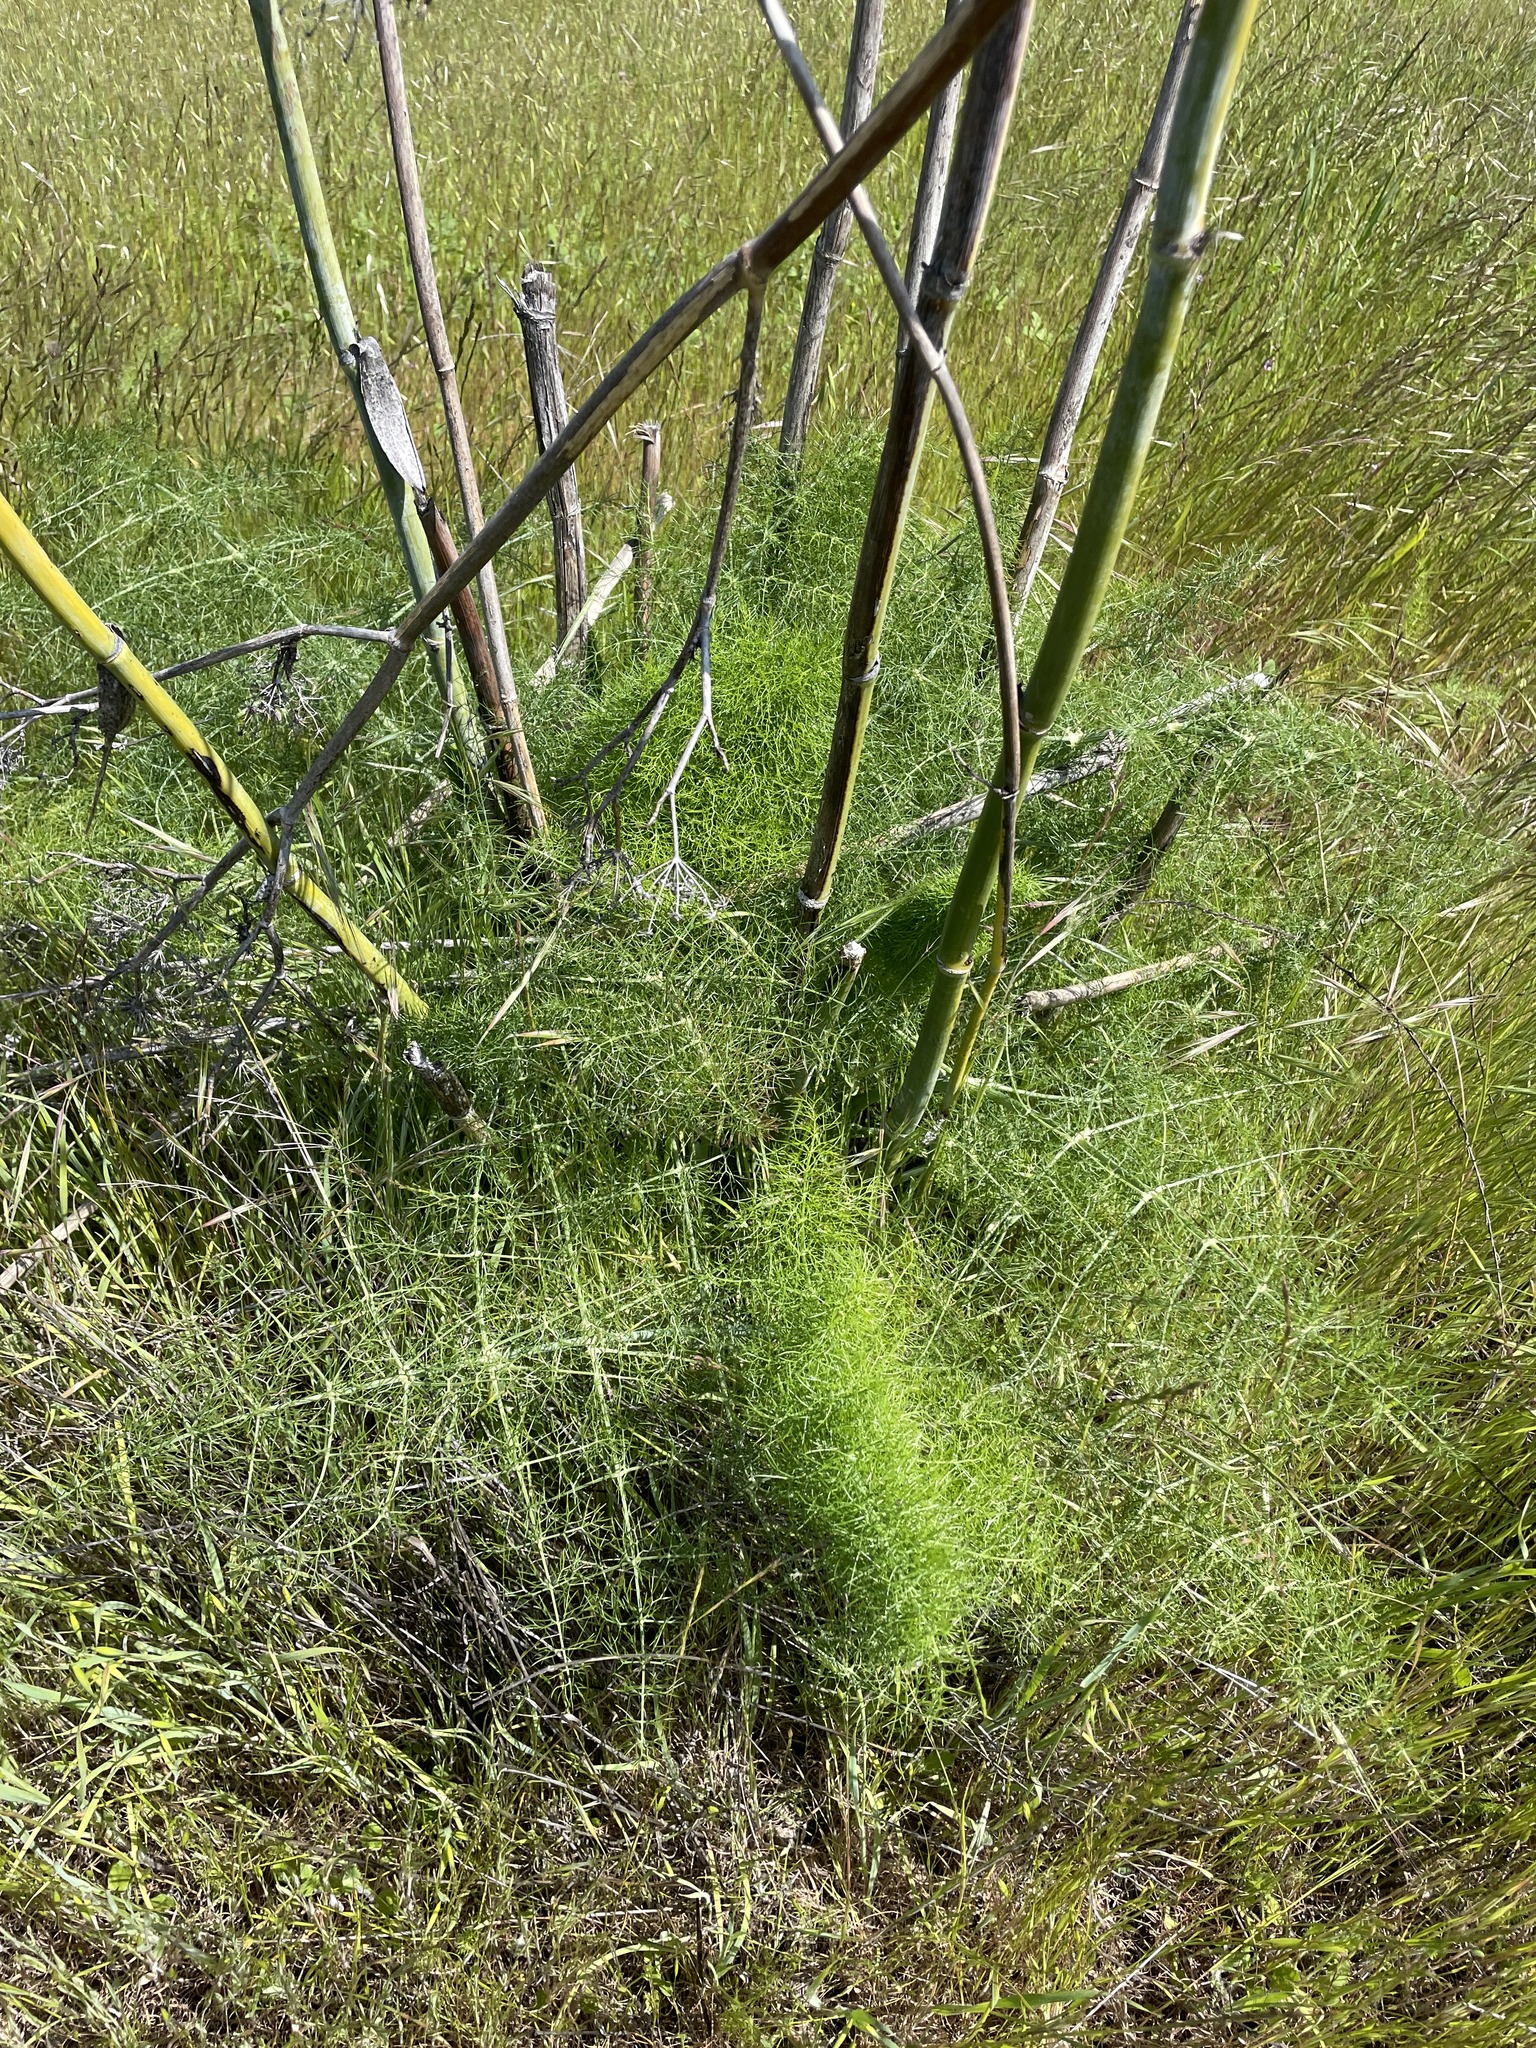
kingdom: Plantae
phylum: Tracheophyta
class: Magnoliopsida
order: Apiales
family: Apiaceae
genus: Foeniculum
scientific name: Foeniculum vulgare
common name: Fennel
